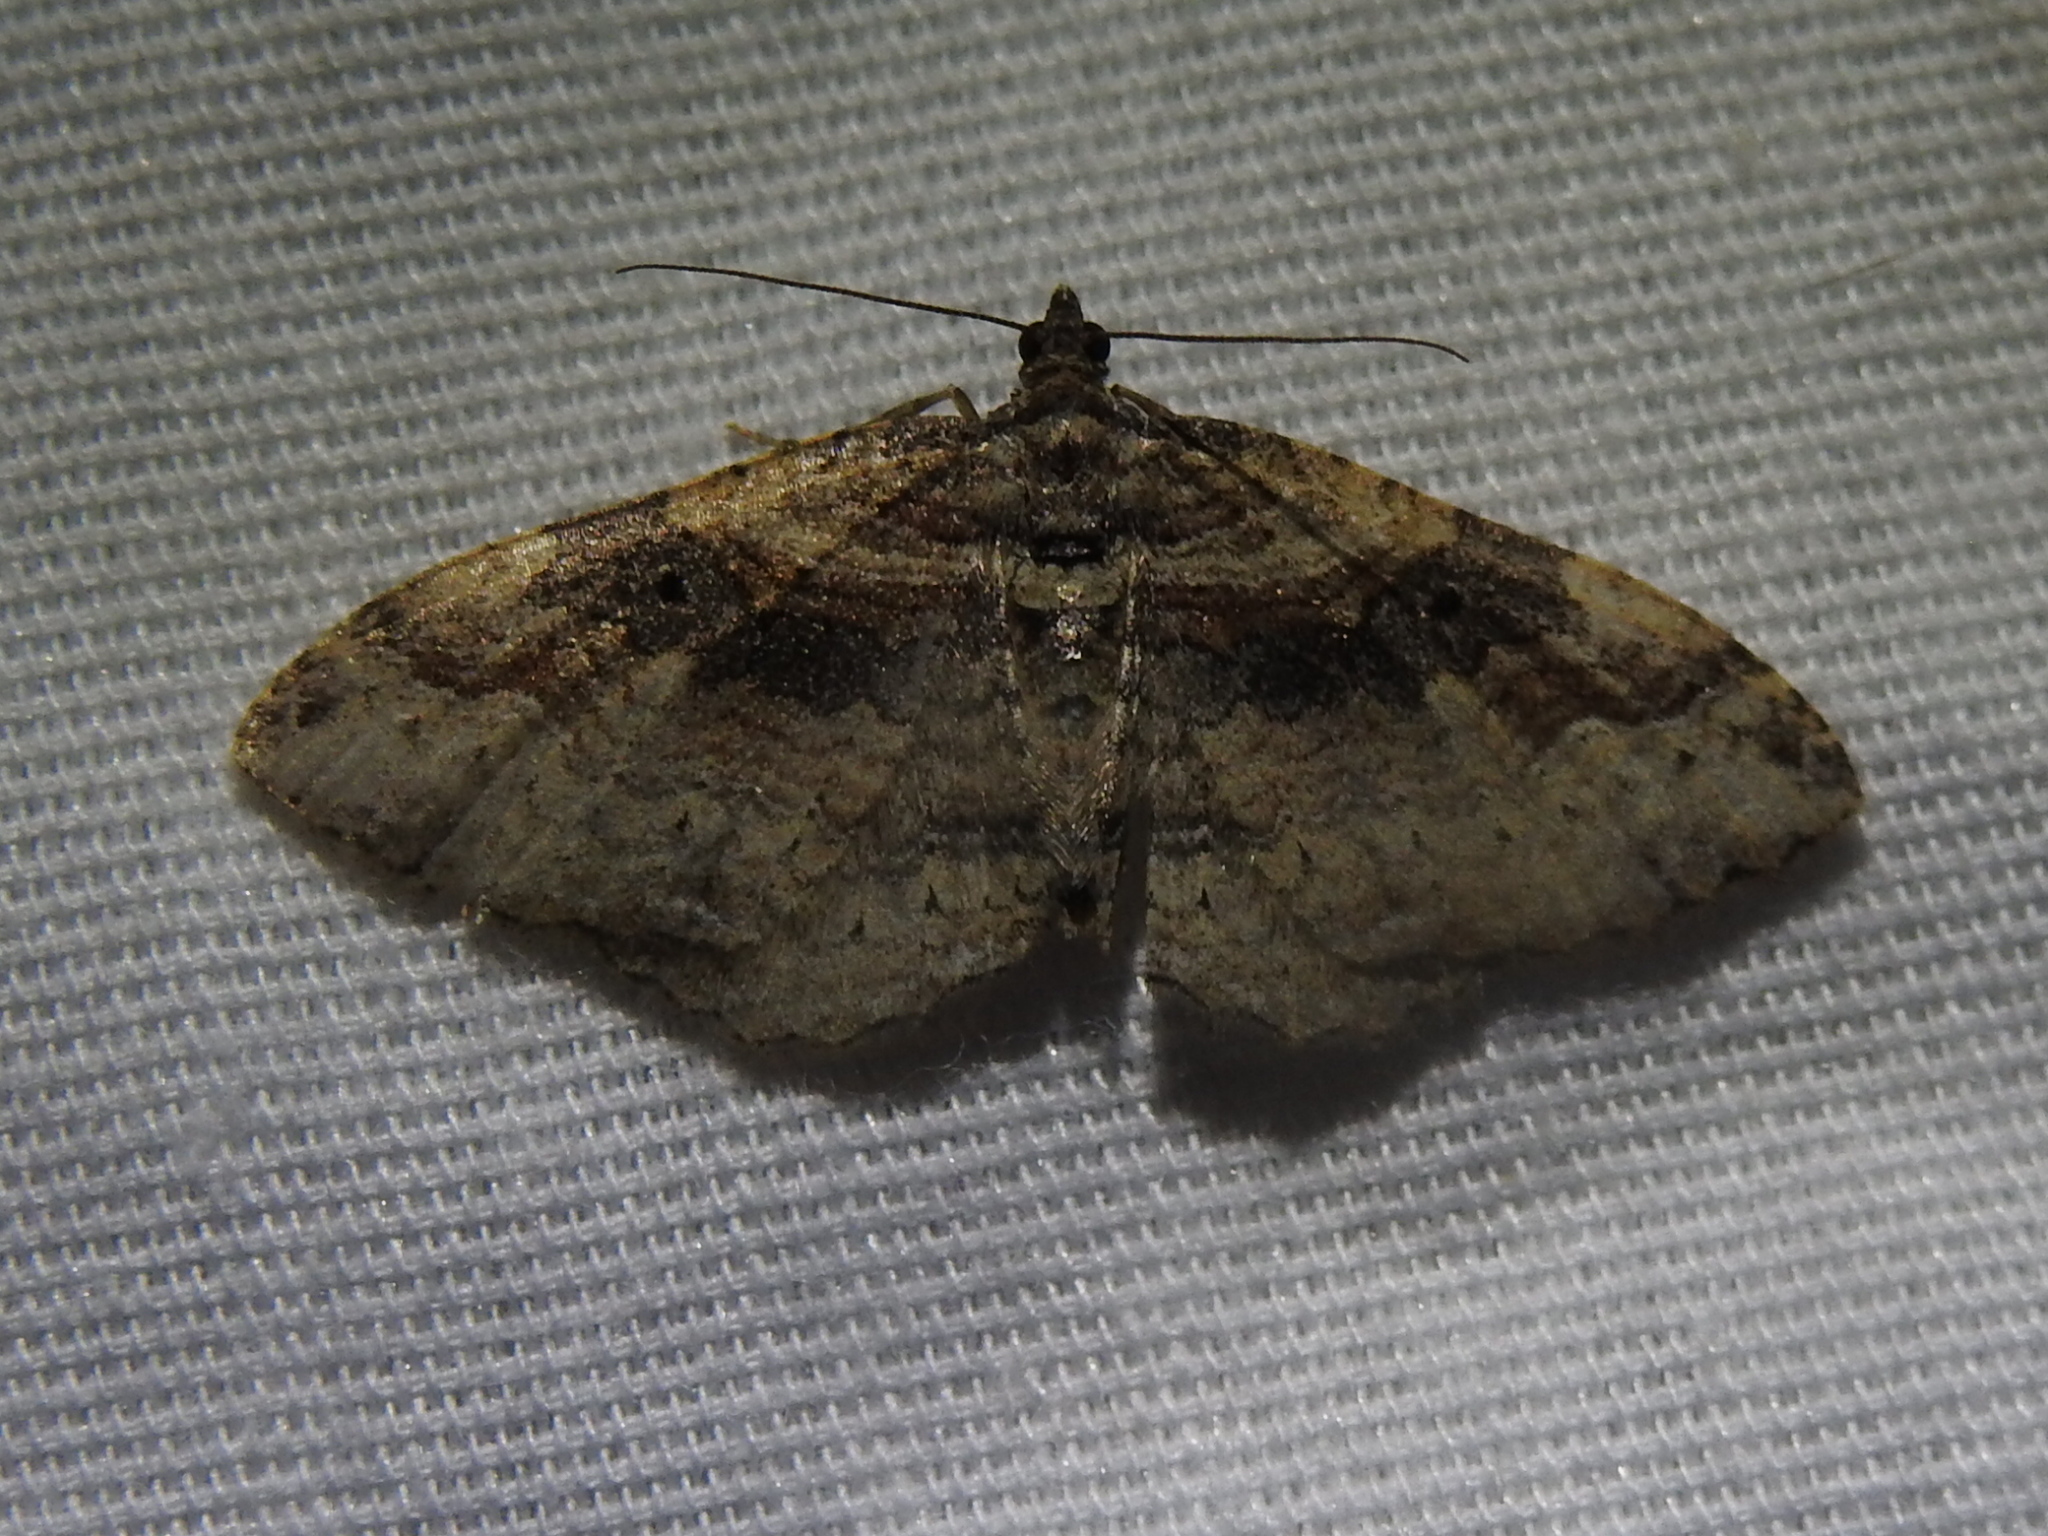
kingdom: Animalia
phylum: Arthropoda
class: Insecta
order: Lepidoptera
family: Geometridae
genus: Costaconvexa
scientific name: Costaconvexa centrostrigaria
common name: Bent-line carpet
